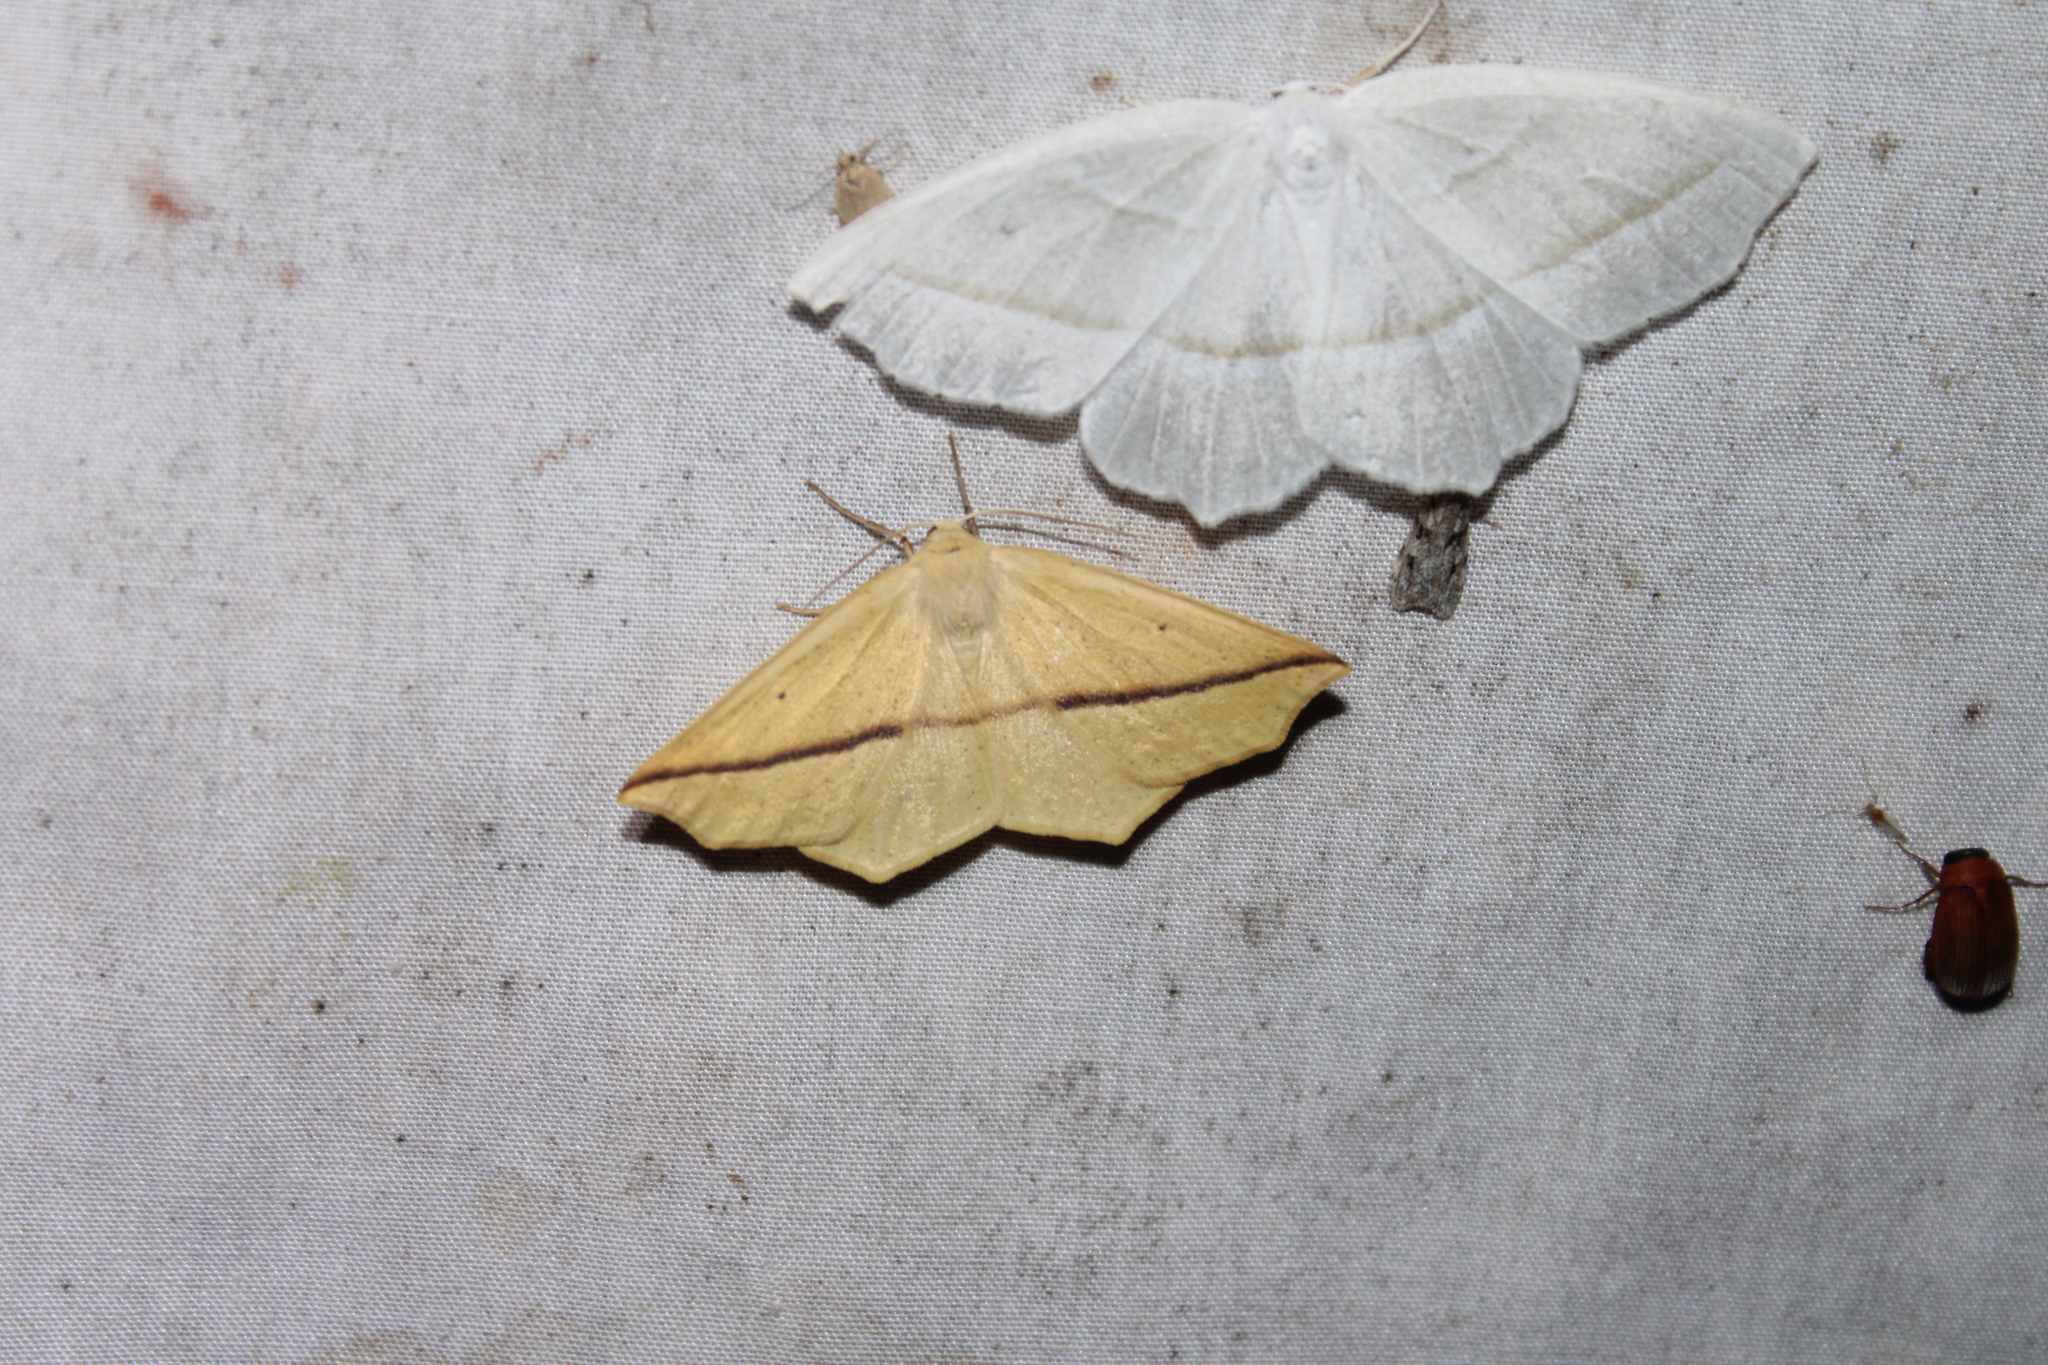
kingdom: Animalia
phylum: Arthropoda
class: Insecta
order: Lepidoptera
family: Geometridae
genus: Tetracis
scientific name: Tetracis crocallata
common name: Yellow slant-line
